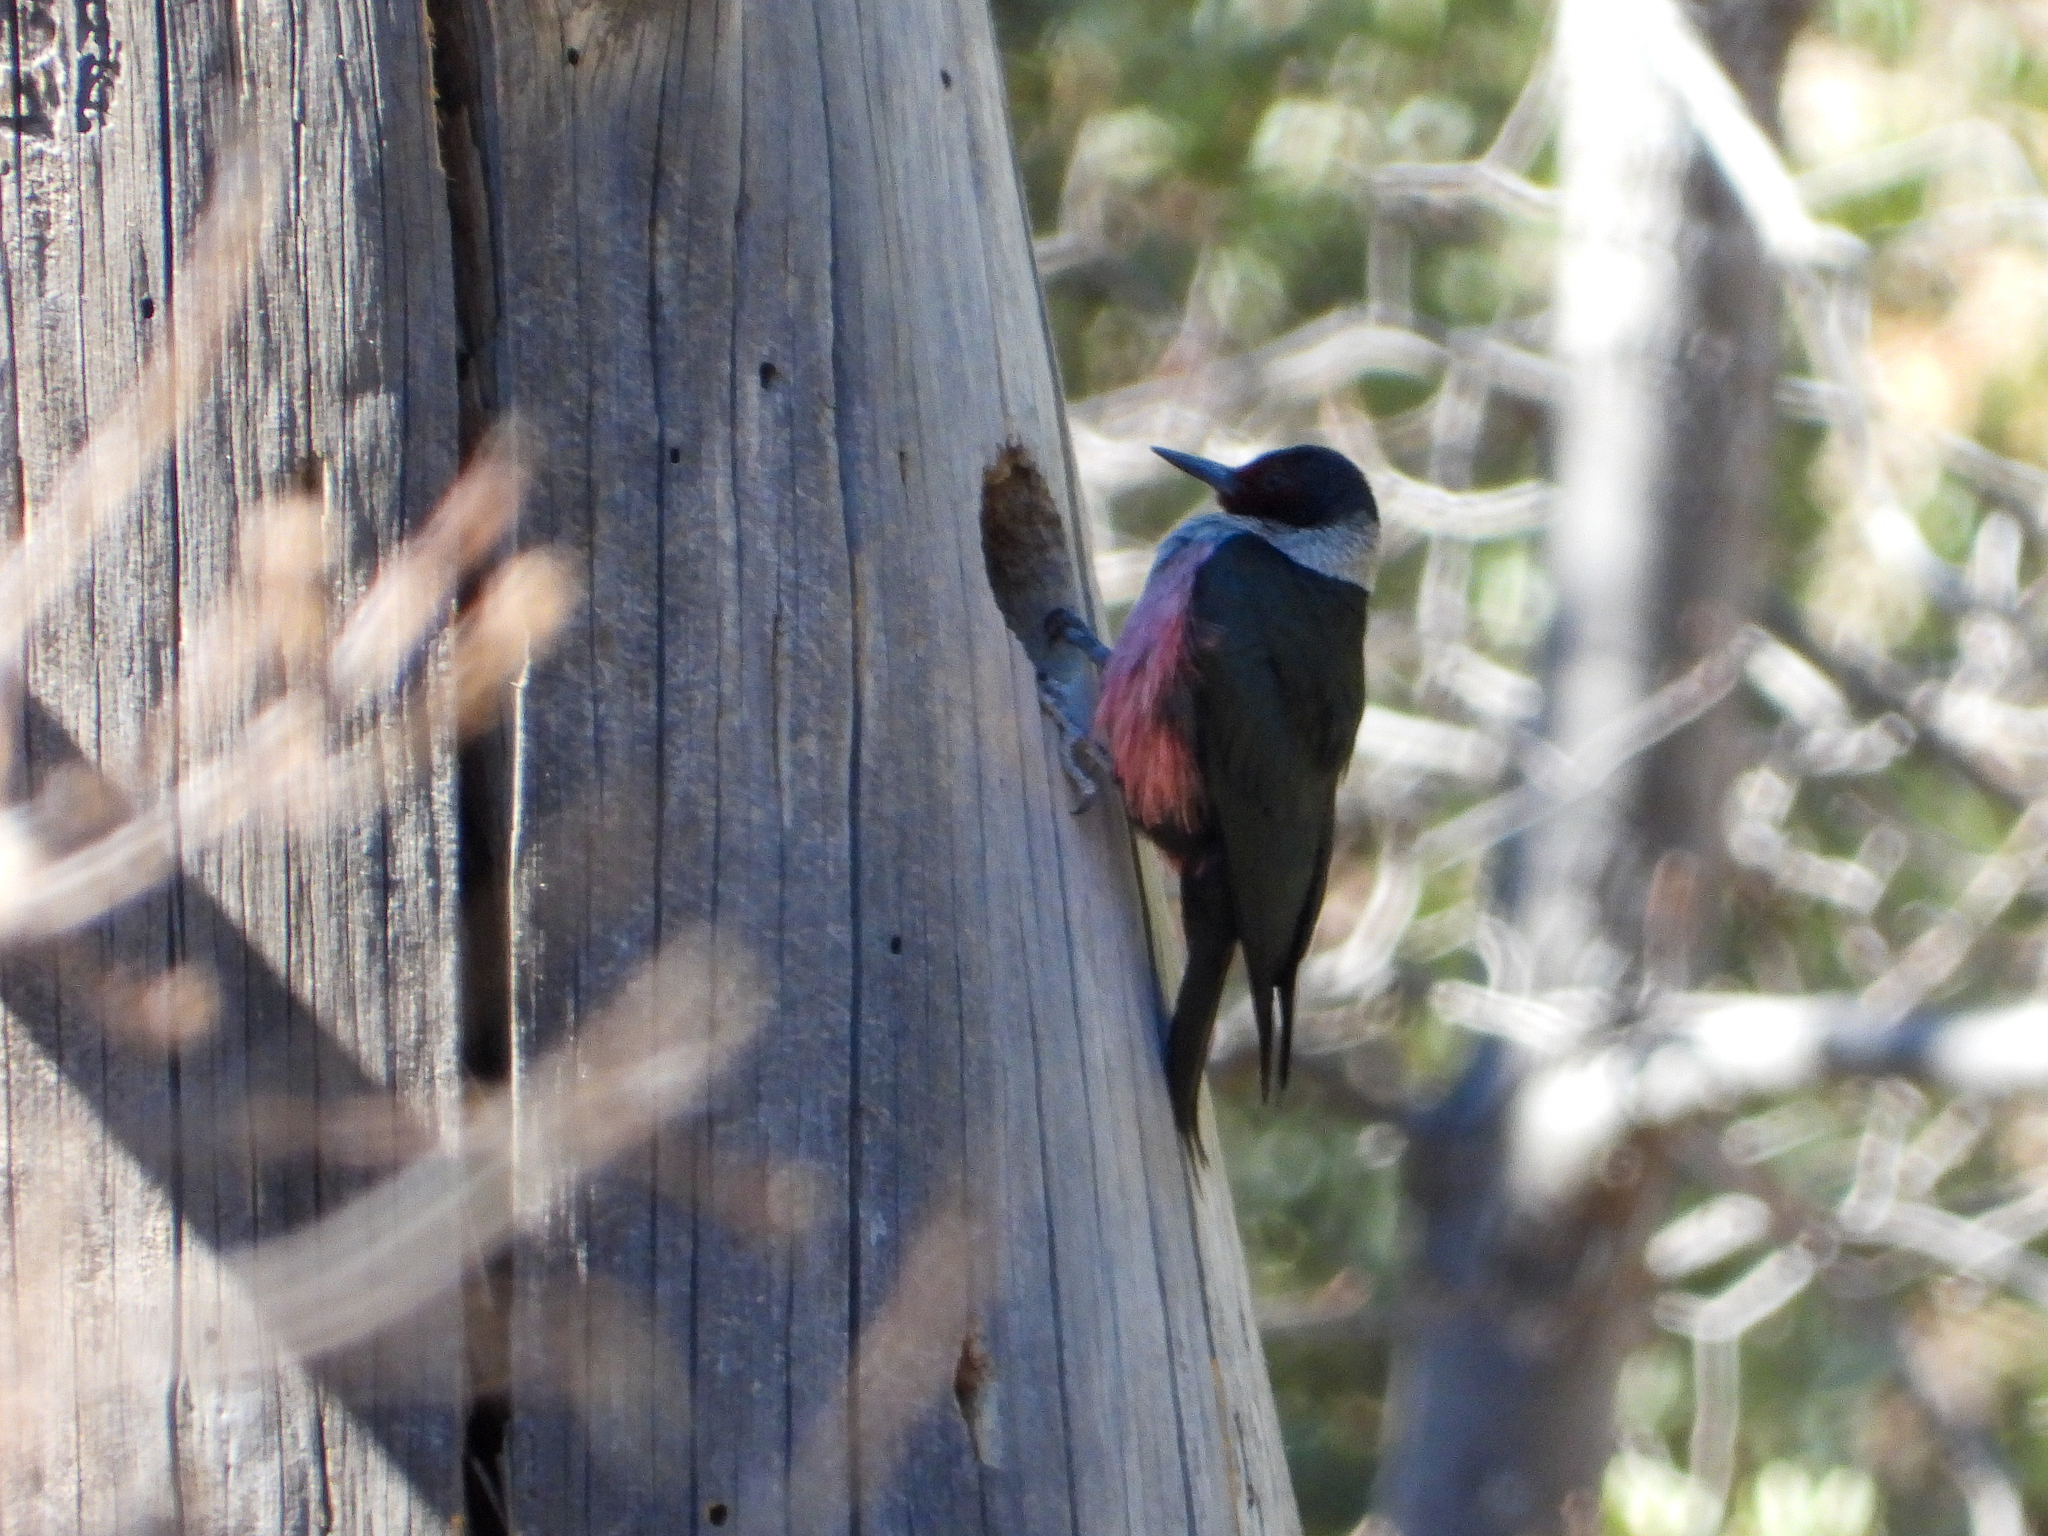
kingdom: Animalia
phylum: Chordata
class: Aves
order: Piciformes
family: Picidae
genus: Melanerpes
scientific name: Melanerpes lewis
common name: Lewis's woodpecker
